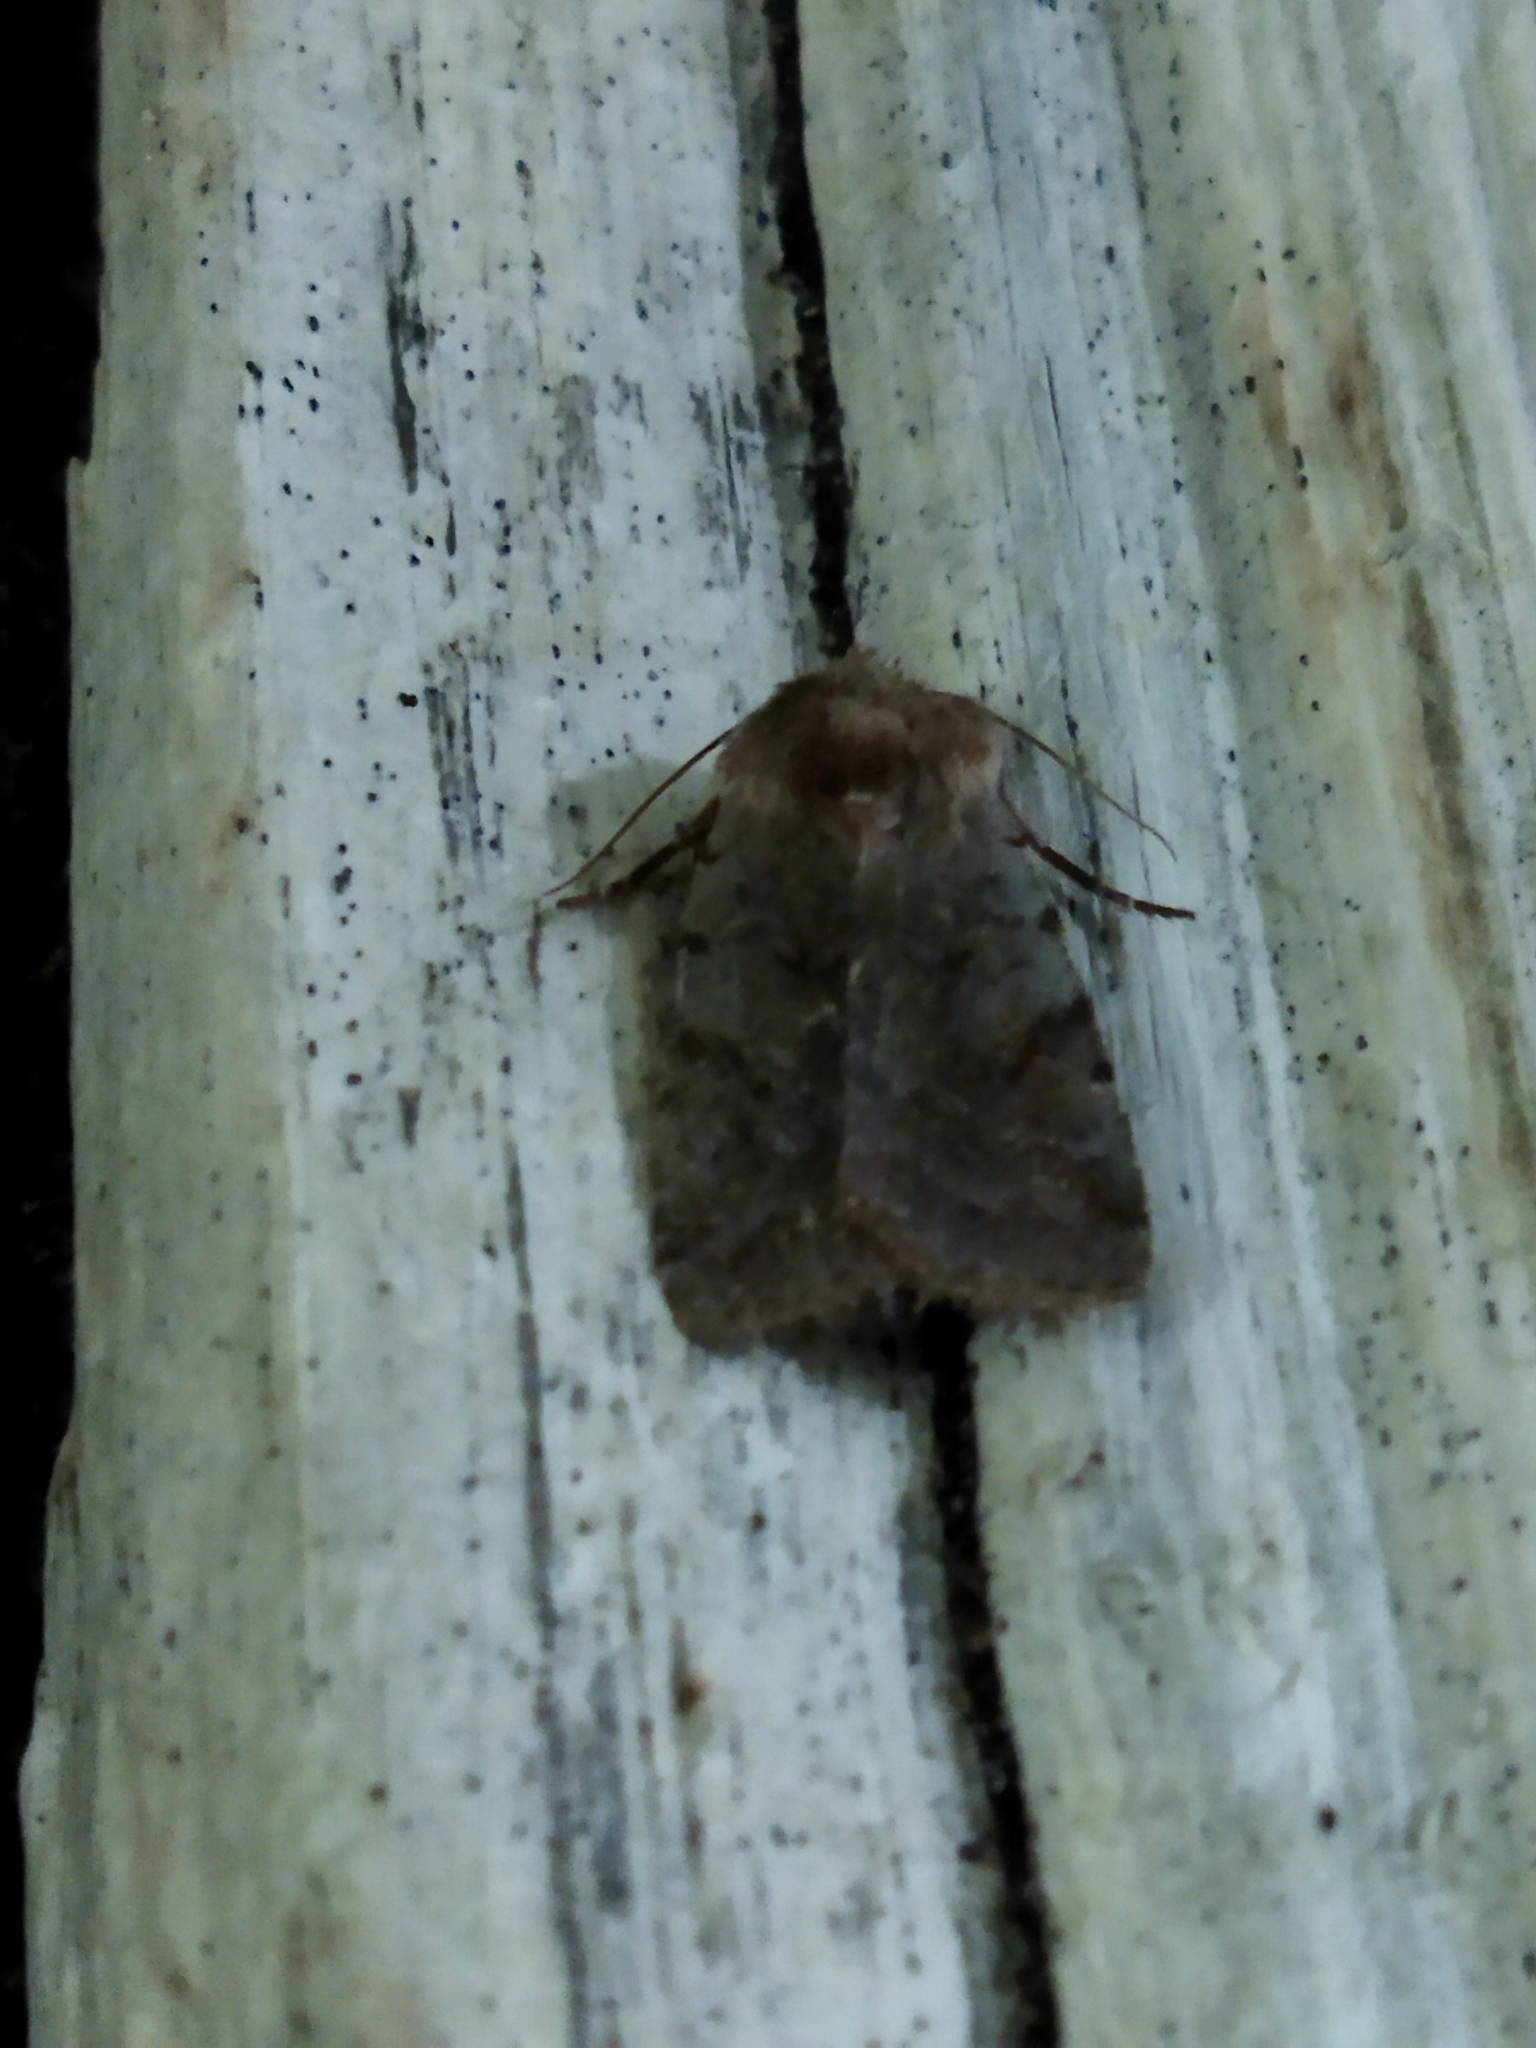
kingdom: Animalia
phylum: Arthropoda
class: Insecta
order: Lepidoptera
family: Noctuidae
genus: Cerastis
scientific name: Cerastis rubricosa
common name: Red chestnut
